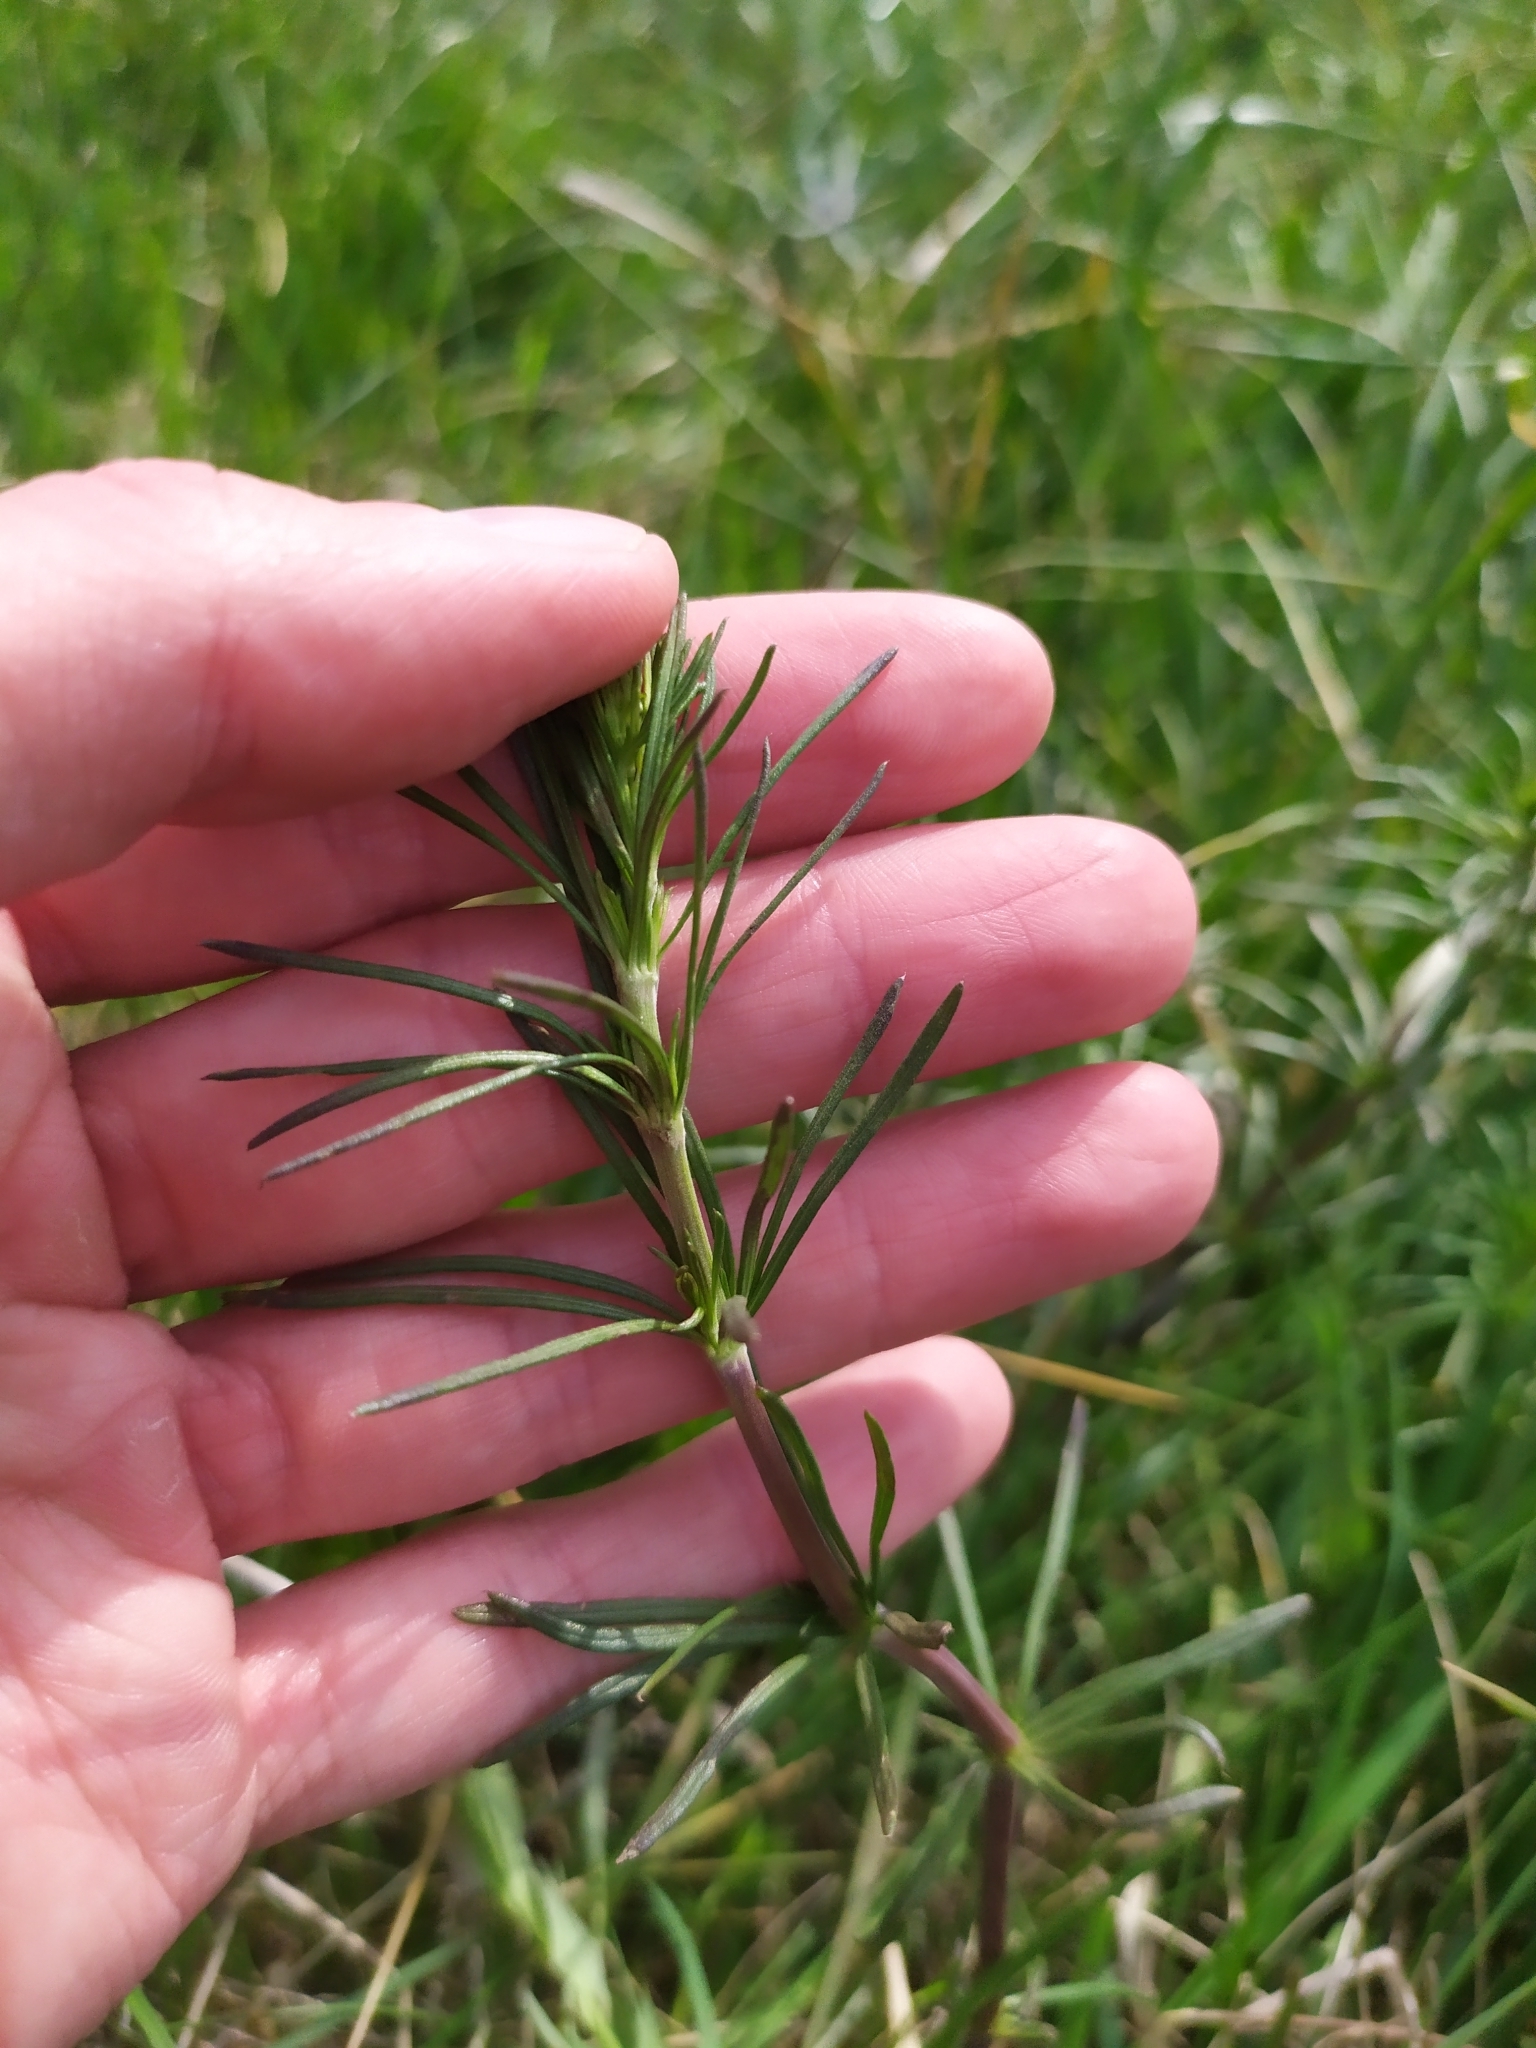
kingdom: Plantae
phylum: Tracheophyta
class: Magnoliopsida
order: Gentianales
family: Rubiaceae
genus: Galium
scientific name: Galium verum
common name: Lady's bedstraw
